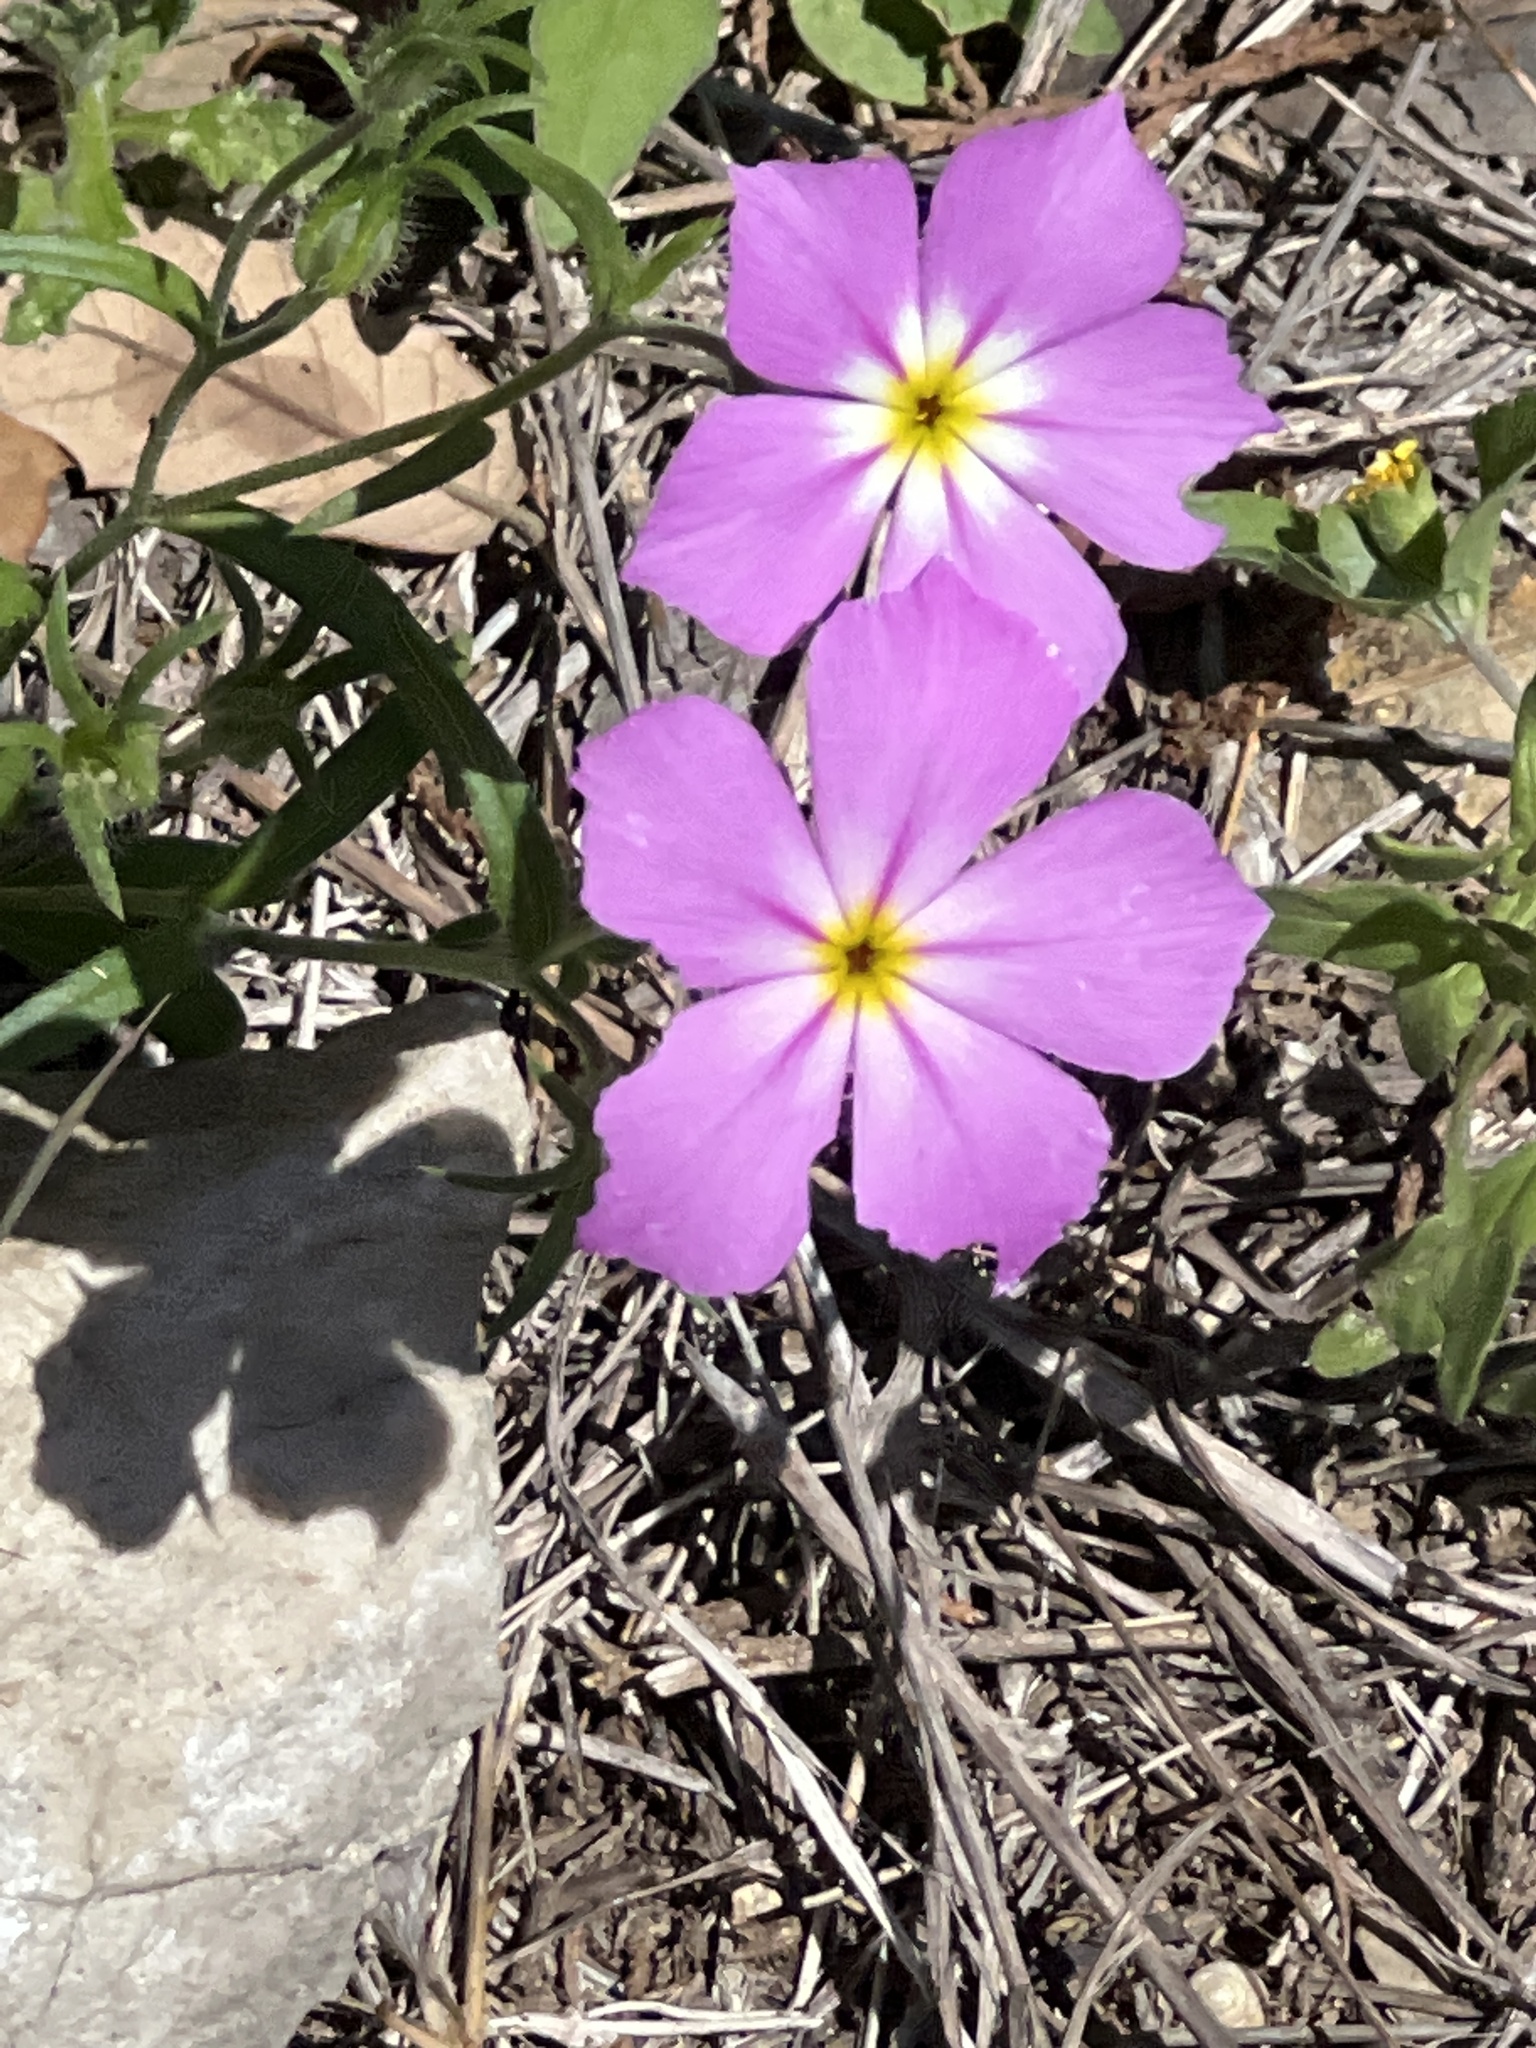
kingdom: Plantae
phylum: Tracheophyta
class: Magnoliopsida
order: Ericales
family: Polemoniaceae
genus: Phlox
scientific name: Phlox roemeriana
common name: Roemer's phlox
